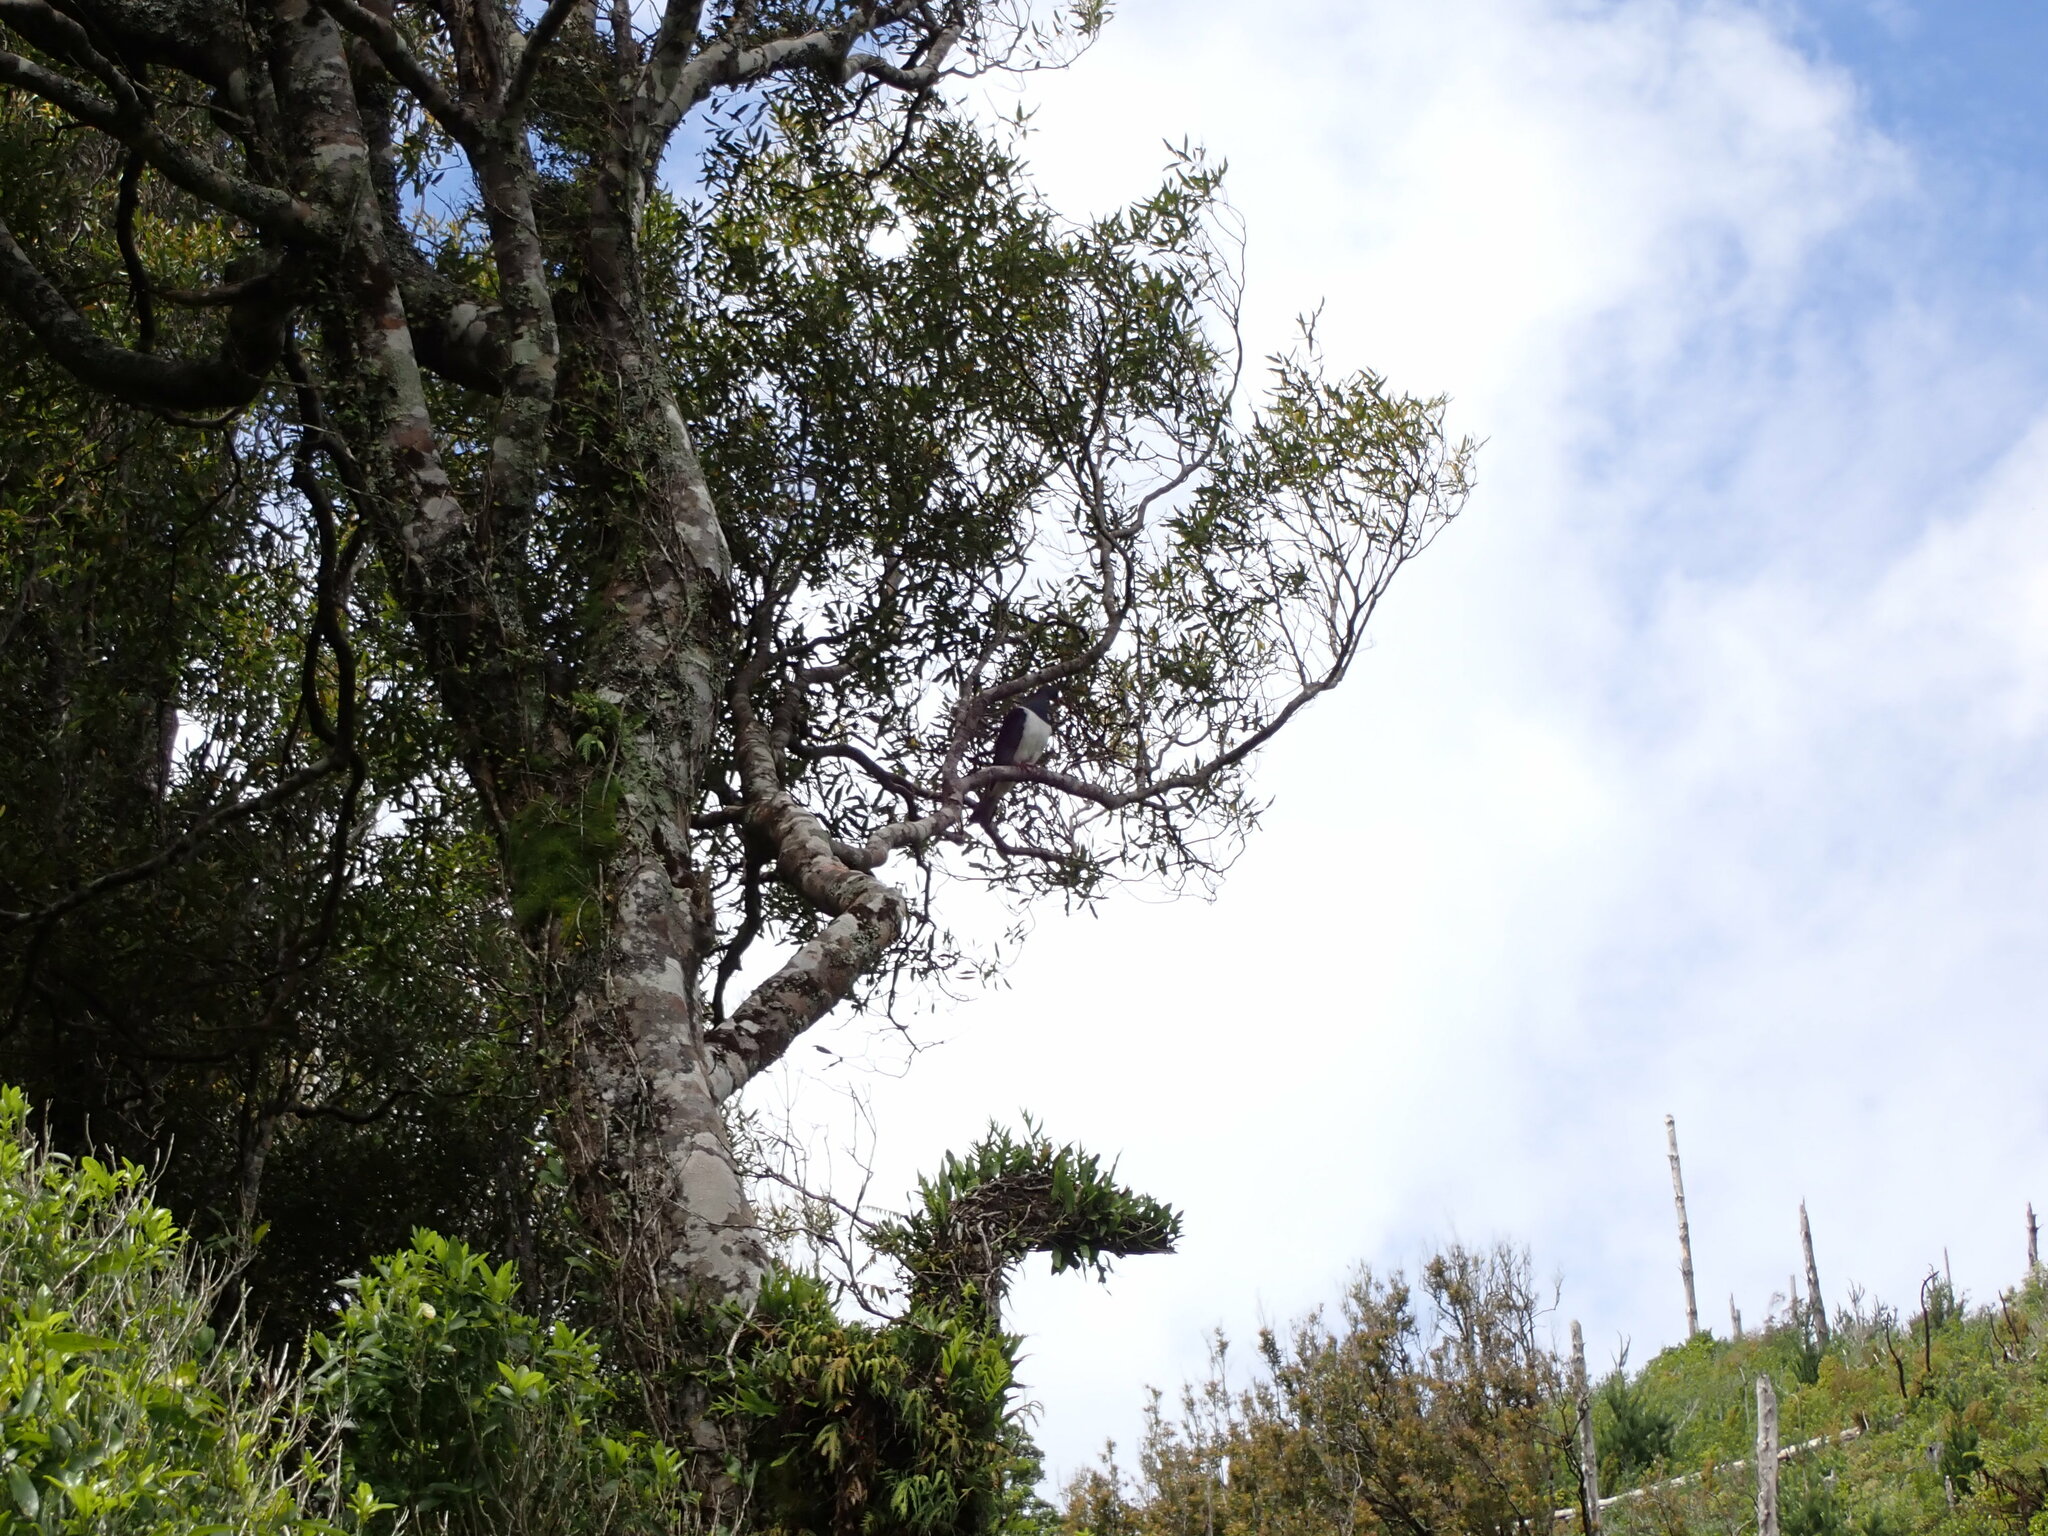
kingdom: Animalia
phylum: Chordata
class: Aves
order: Columbiformes
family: Columbidae
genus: Hemiphaga
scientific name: Hemiphaga novaeseelandiae
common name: New zealand pigeon
